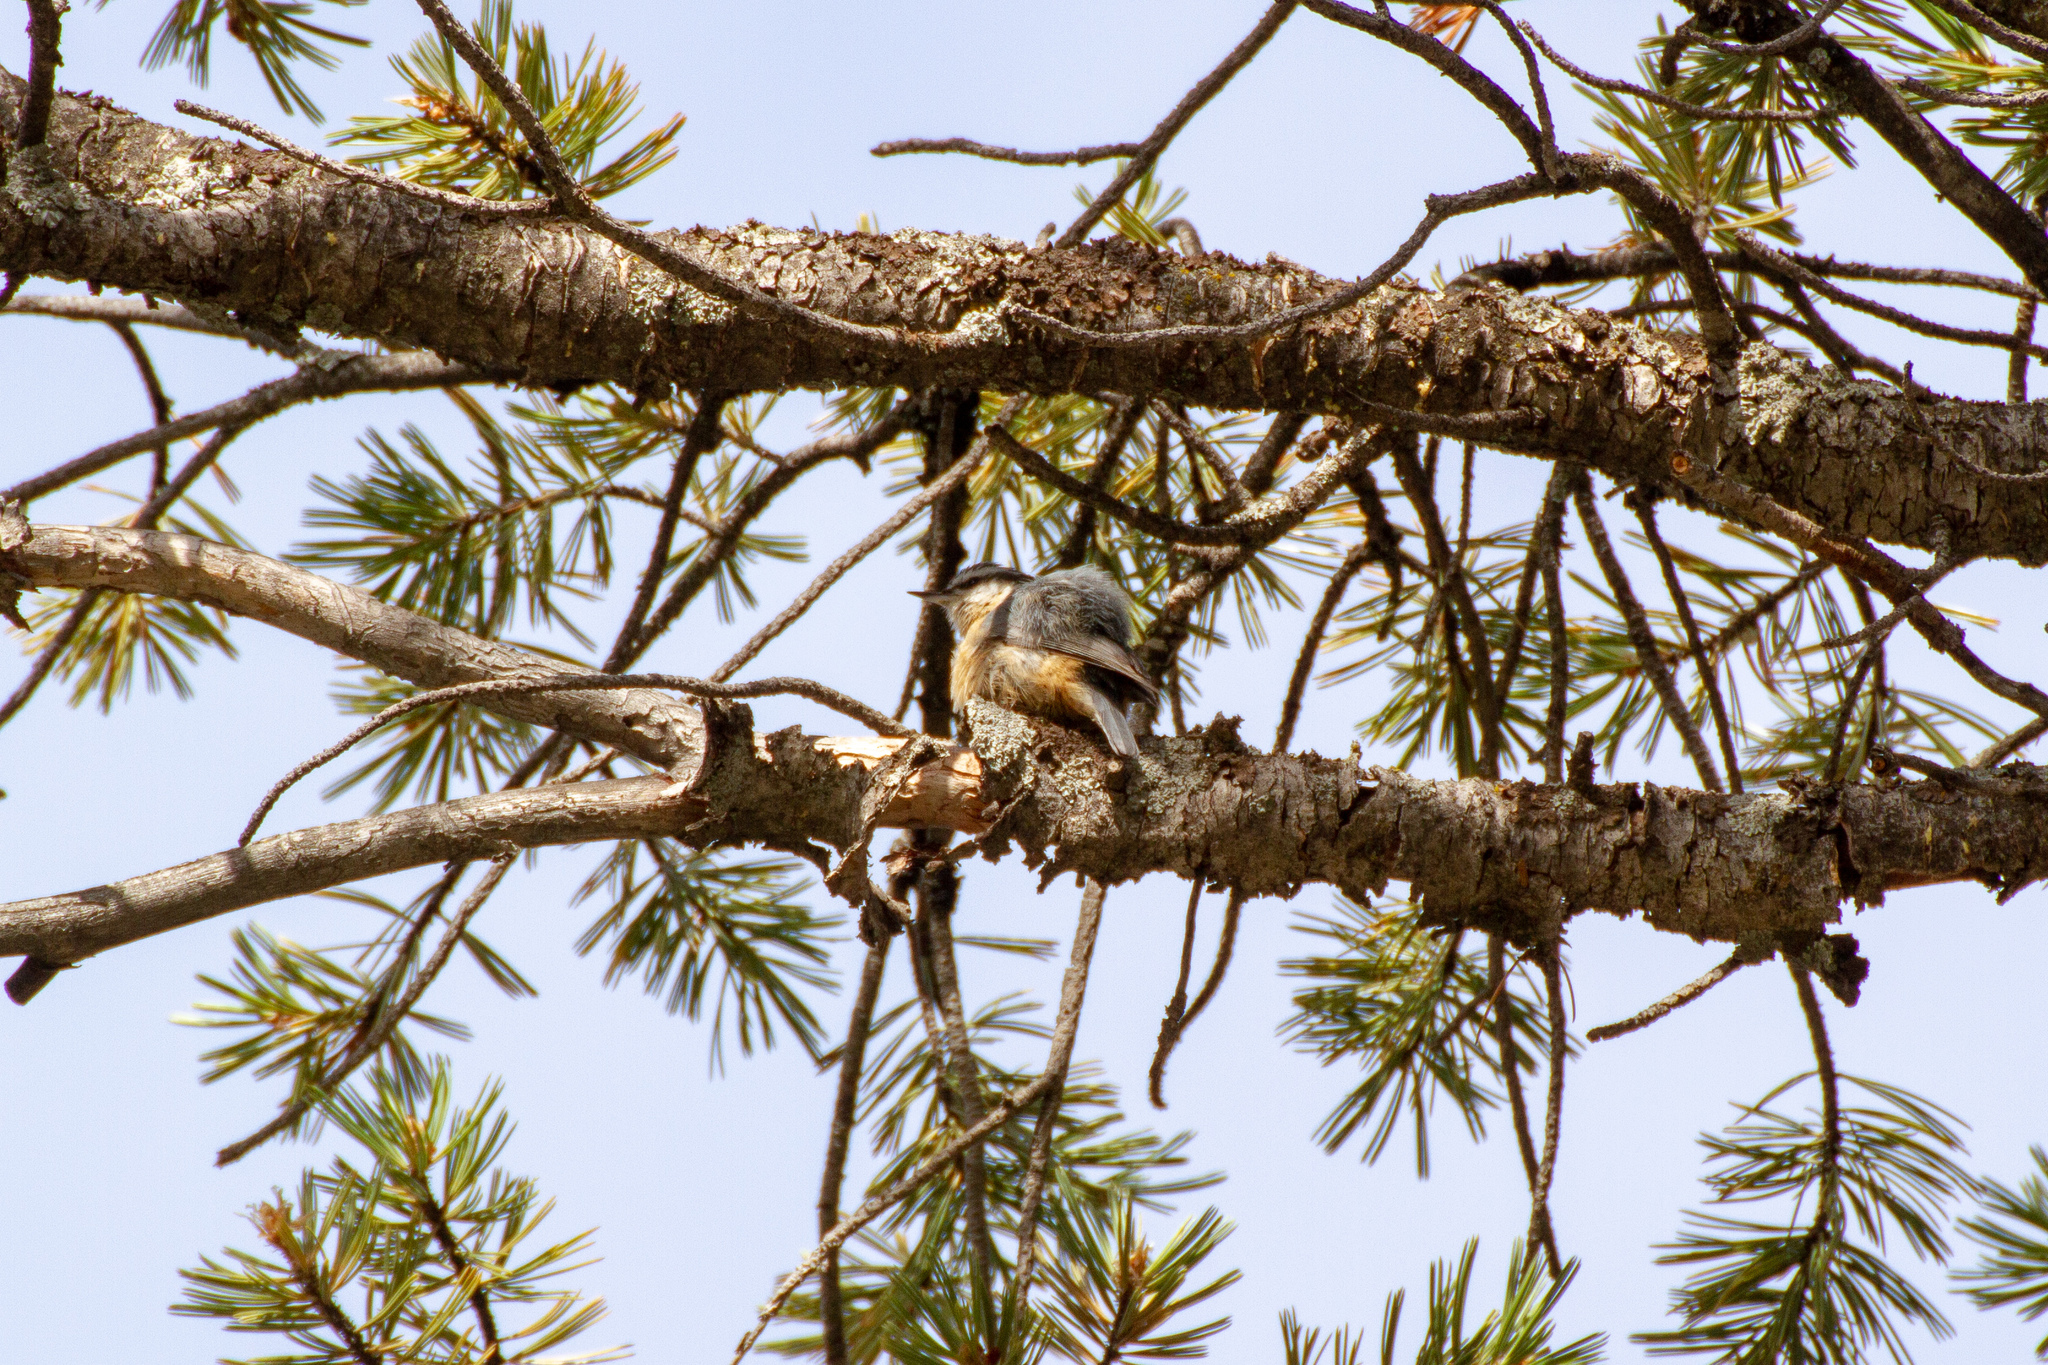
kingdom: Animalia
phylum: Chordata
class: Aves
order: Passeriformes
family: Sittidae
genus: Sitta
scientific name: Sitta canadensis
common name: Red-breasted nuthatch
